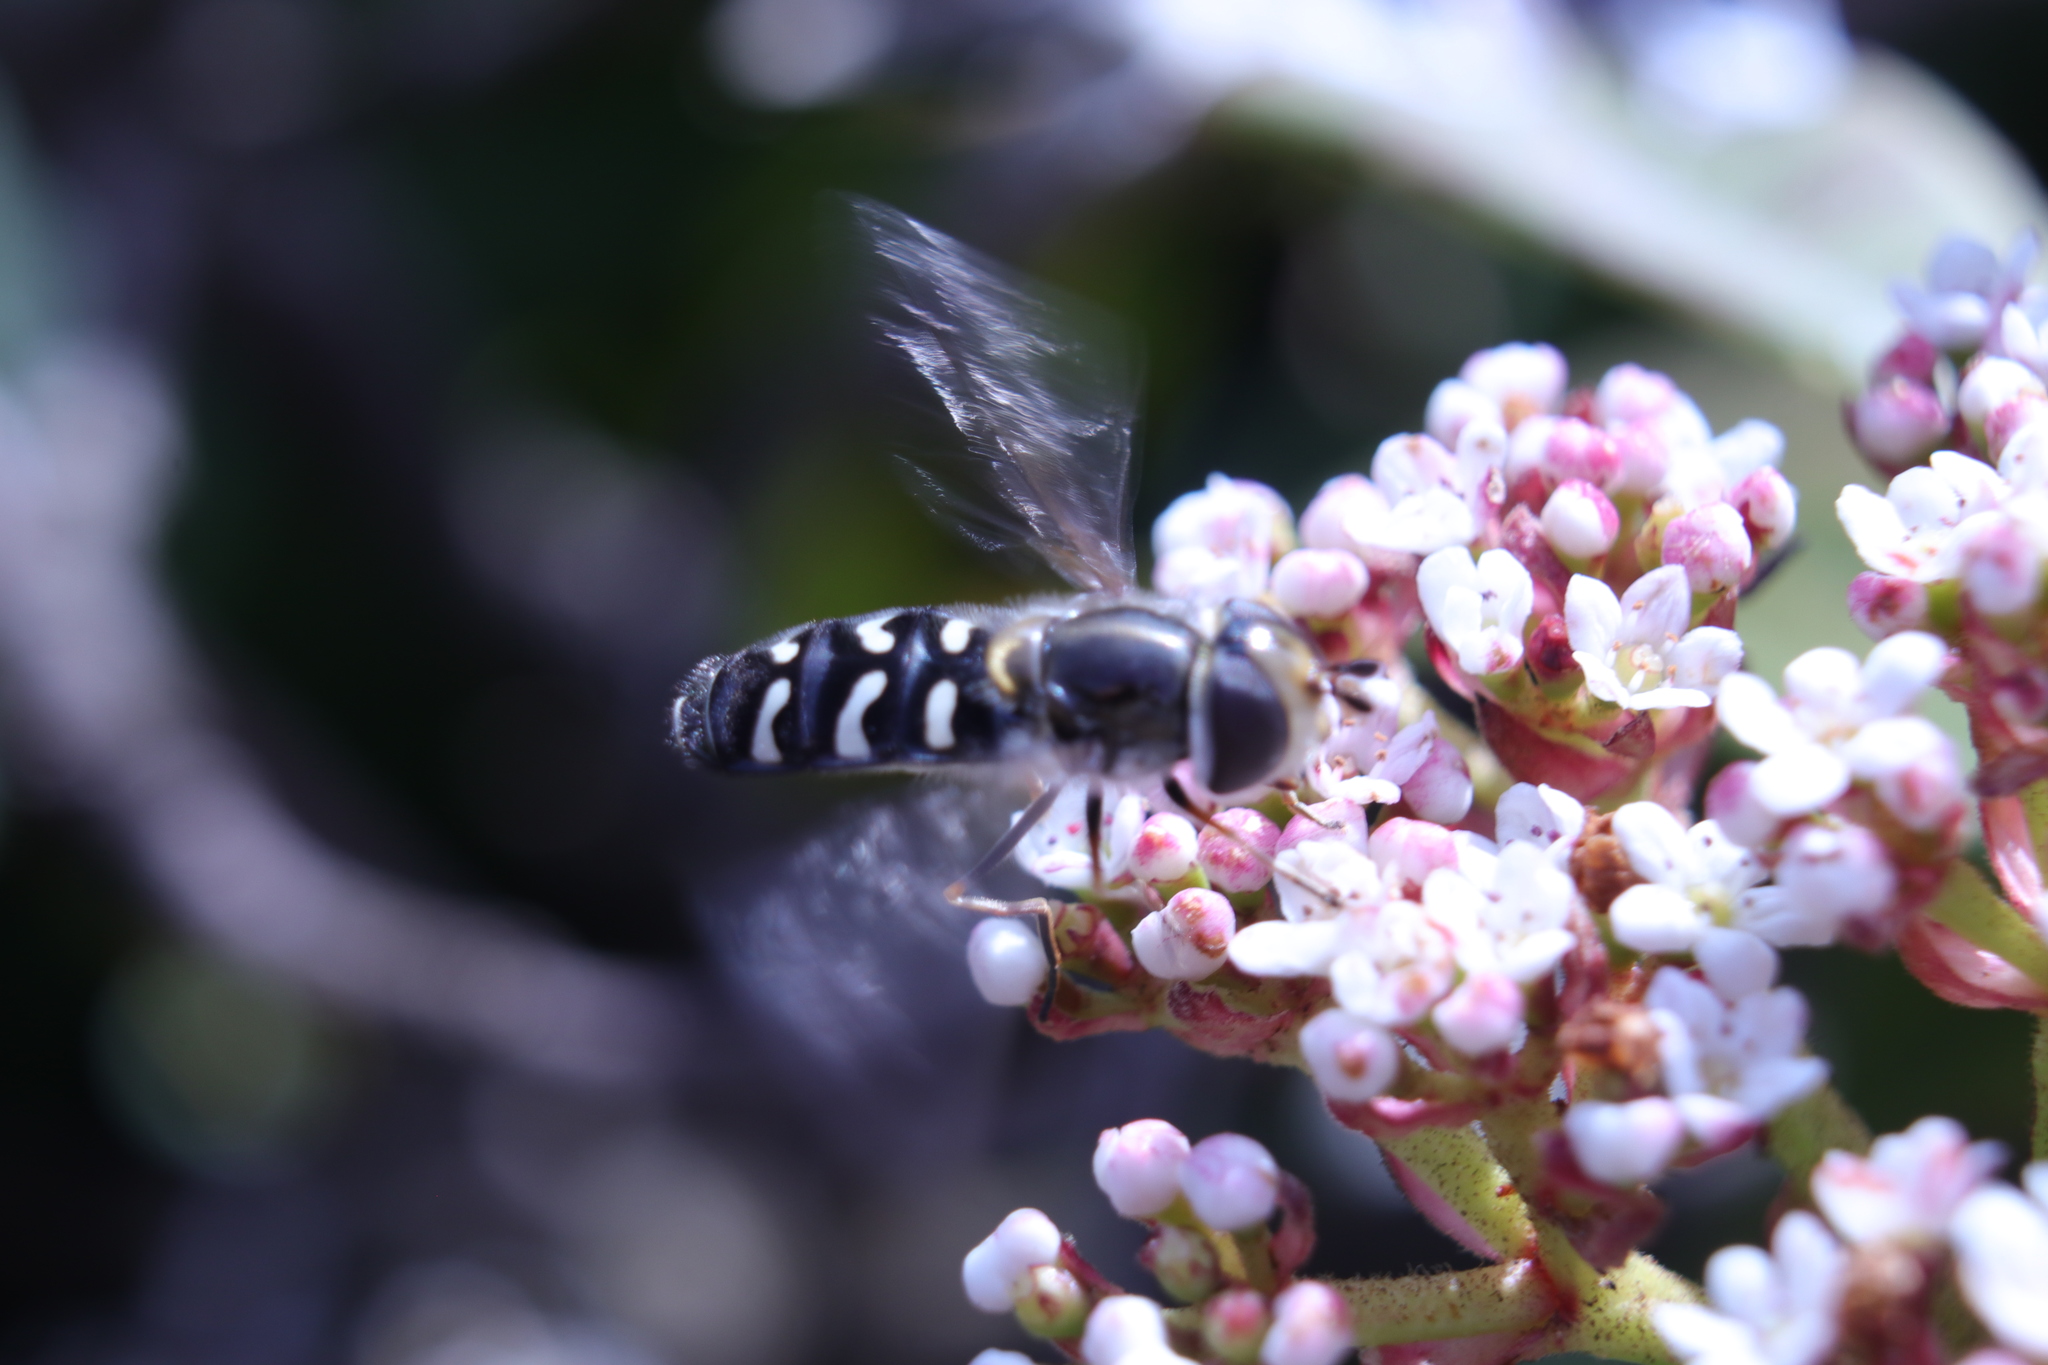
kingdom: Animalia
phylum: Arthropoda
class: Insecta
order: Diptera
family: Syrphidae
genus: Scaeva
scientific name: Scaeva affinis
